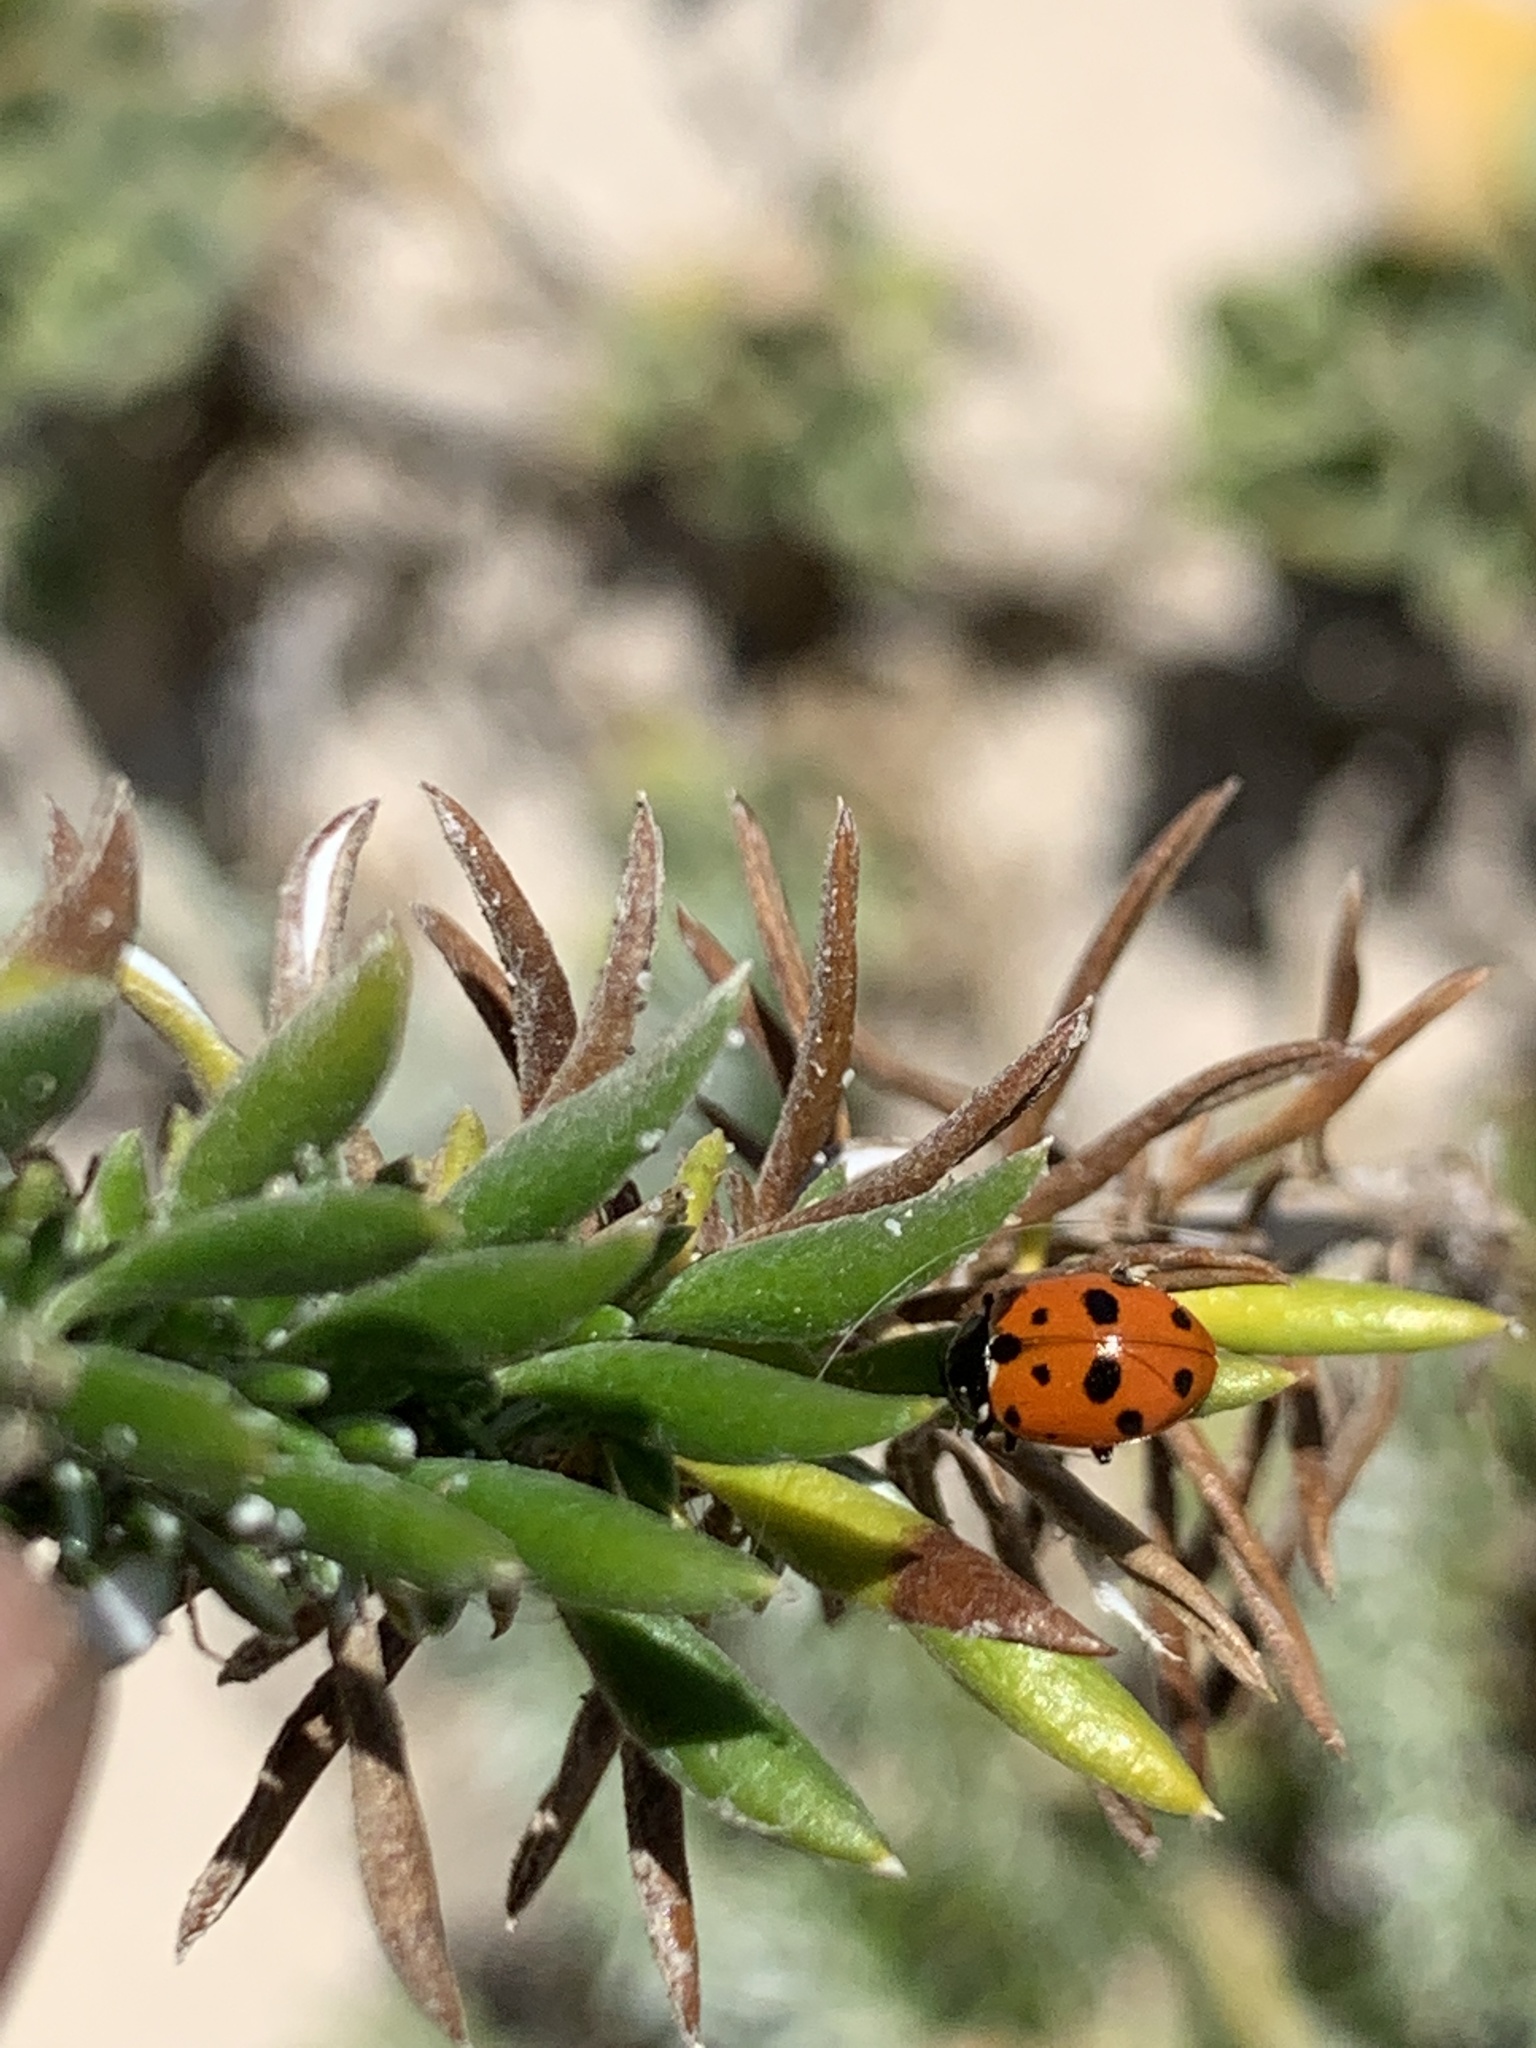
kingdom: Animalia
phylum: Arthropoda
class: Insecta
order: Coleoptera
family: Coccinellidae
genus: Hippodamia
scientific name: Hippodamia variegata
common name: Ladybird beetle
